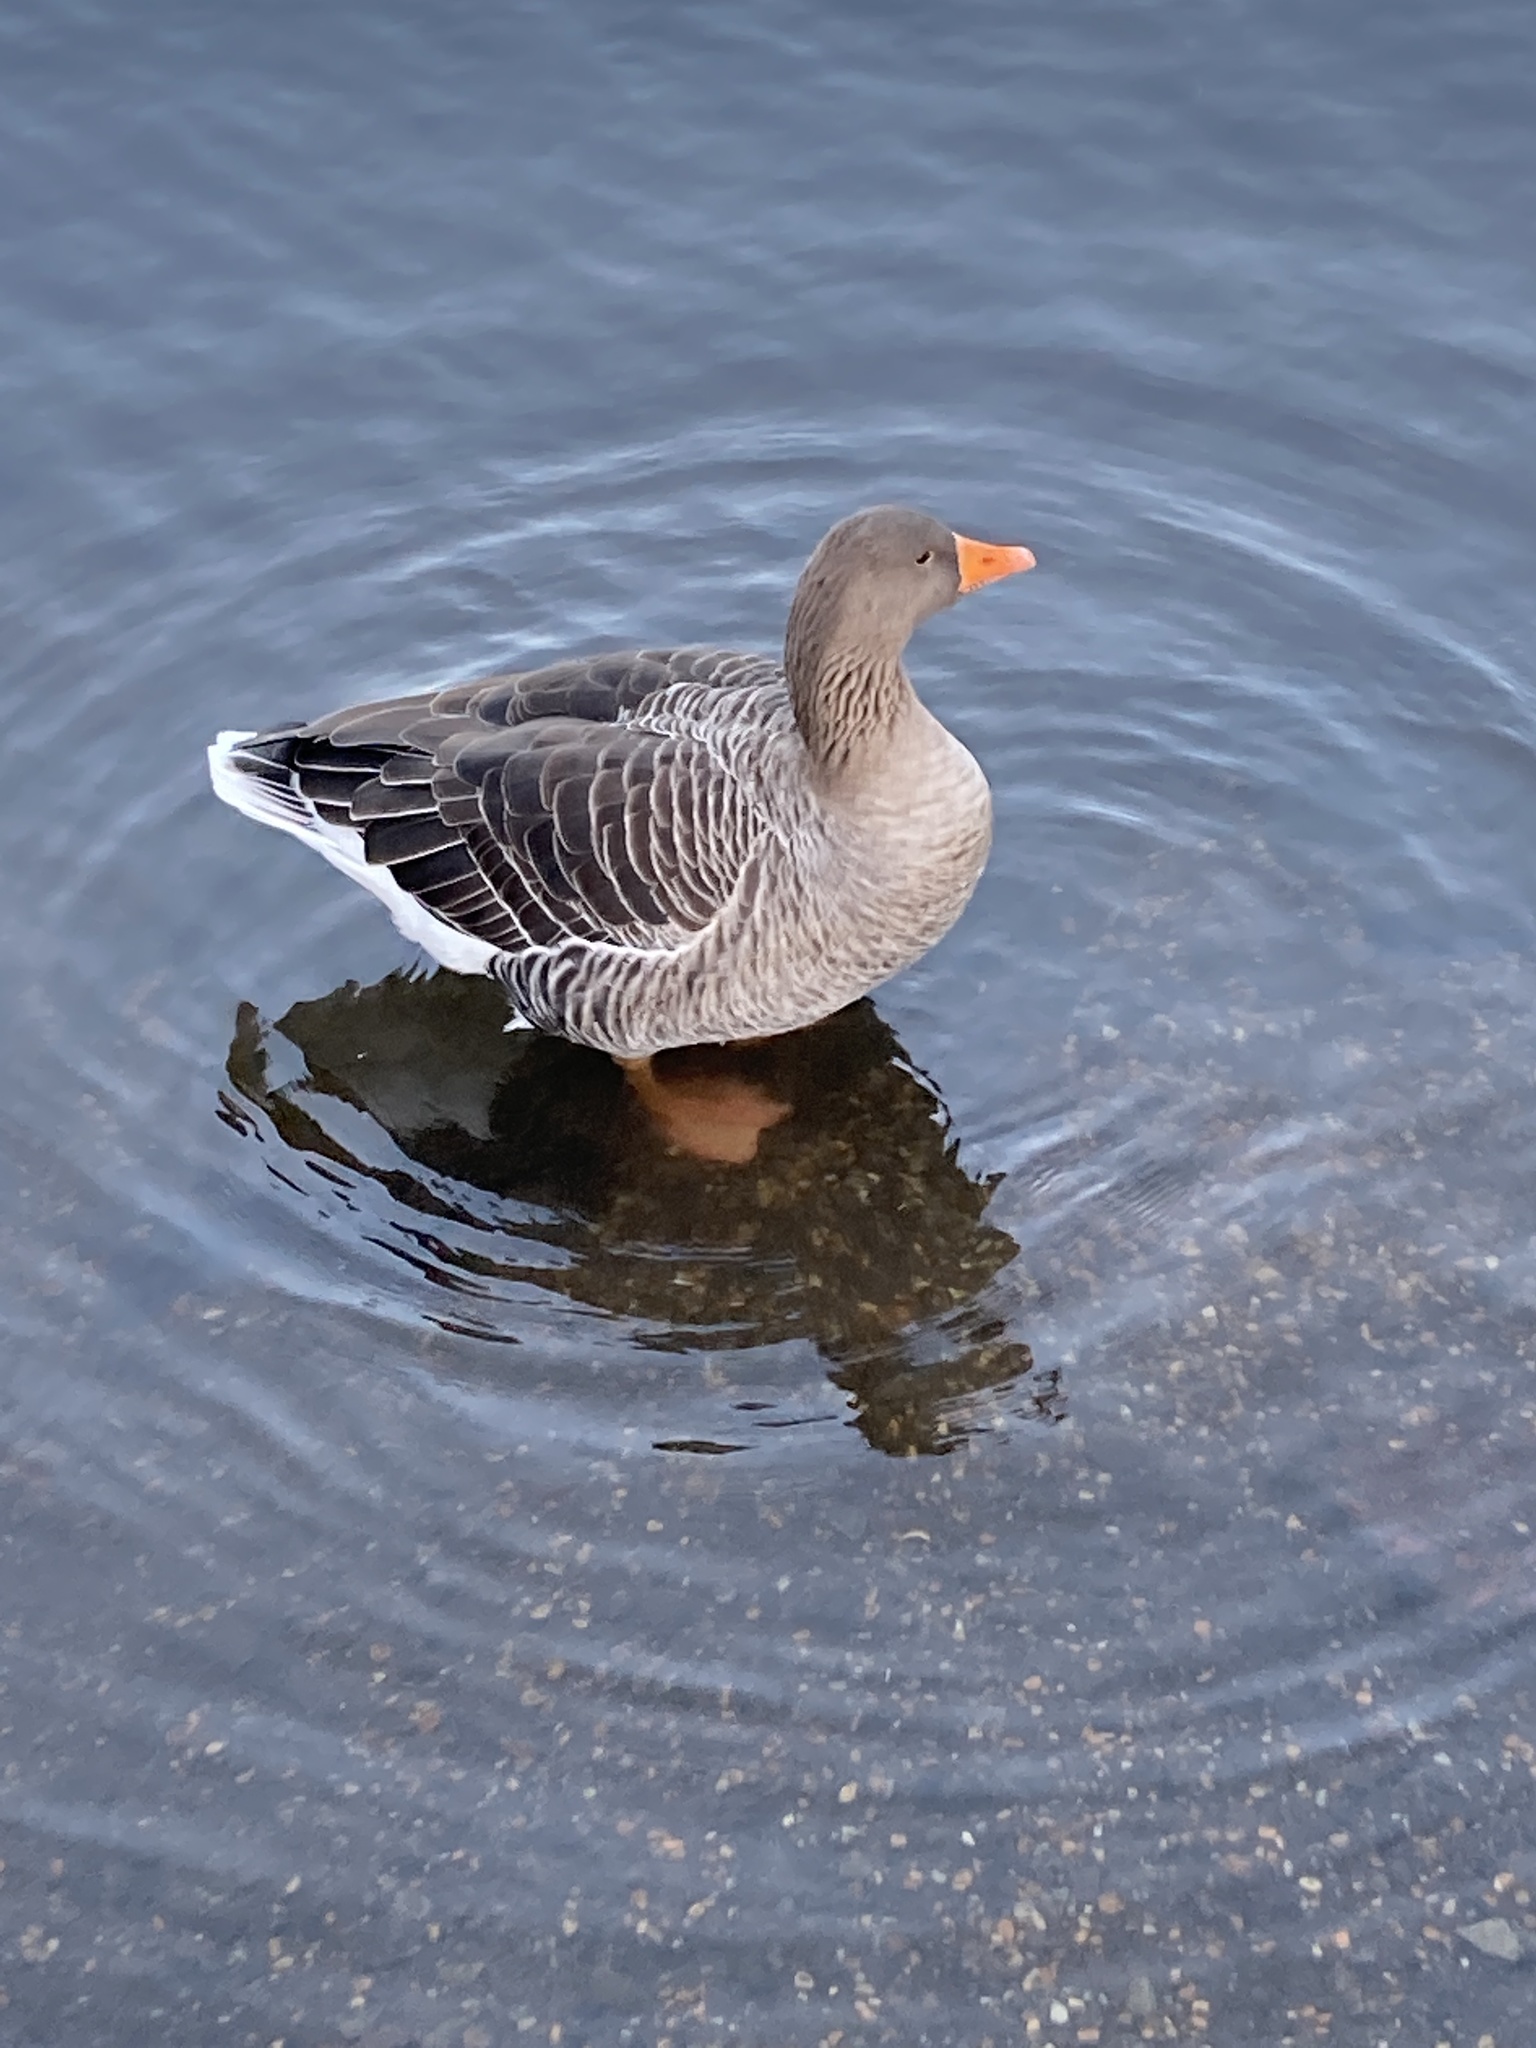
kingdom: Animalia
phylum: Chordata
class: Aves
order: Anseriformes
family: Anatidae
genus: Anser
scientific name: Anser anser
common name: Greylag goose
